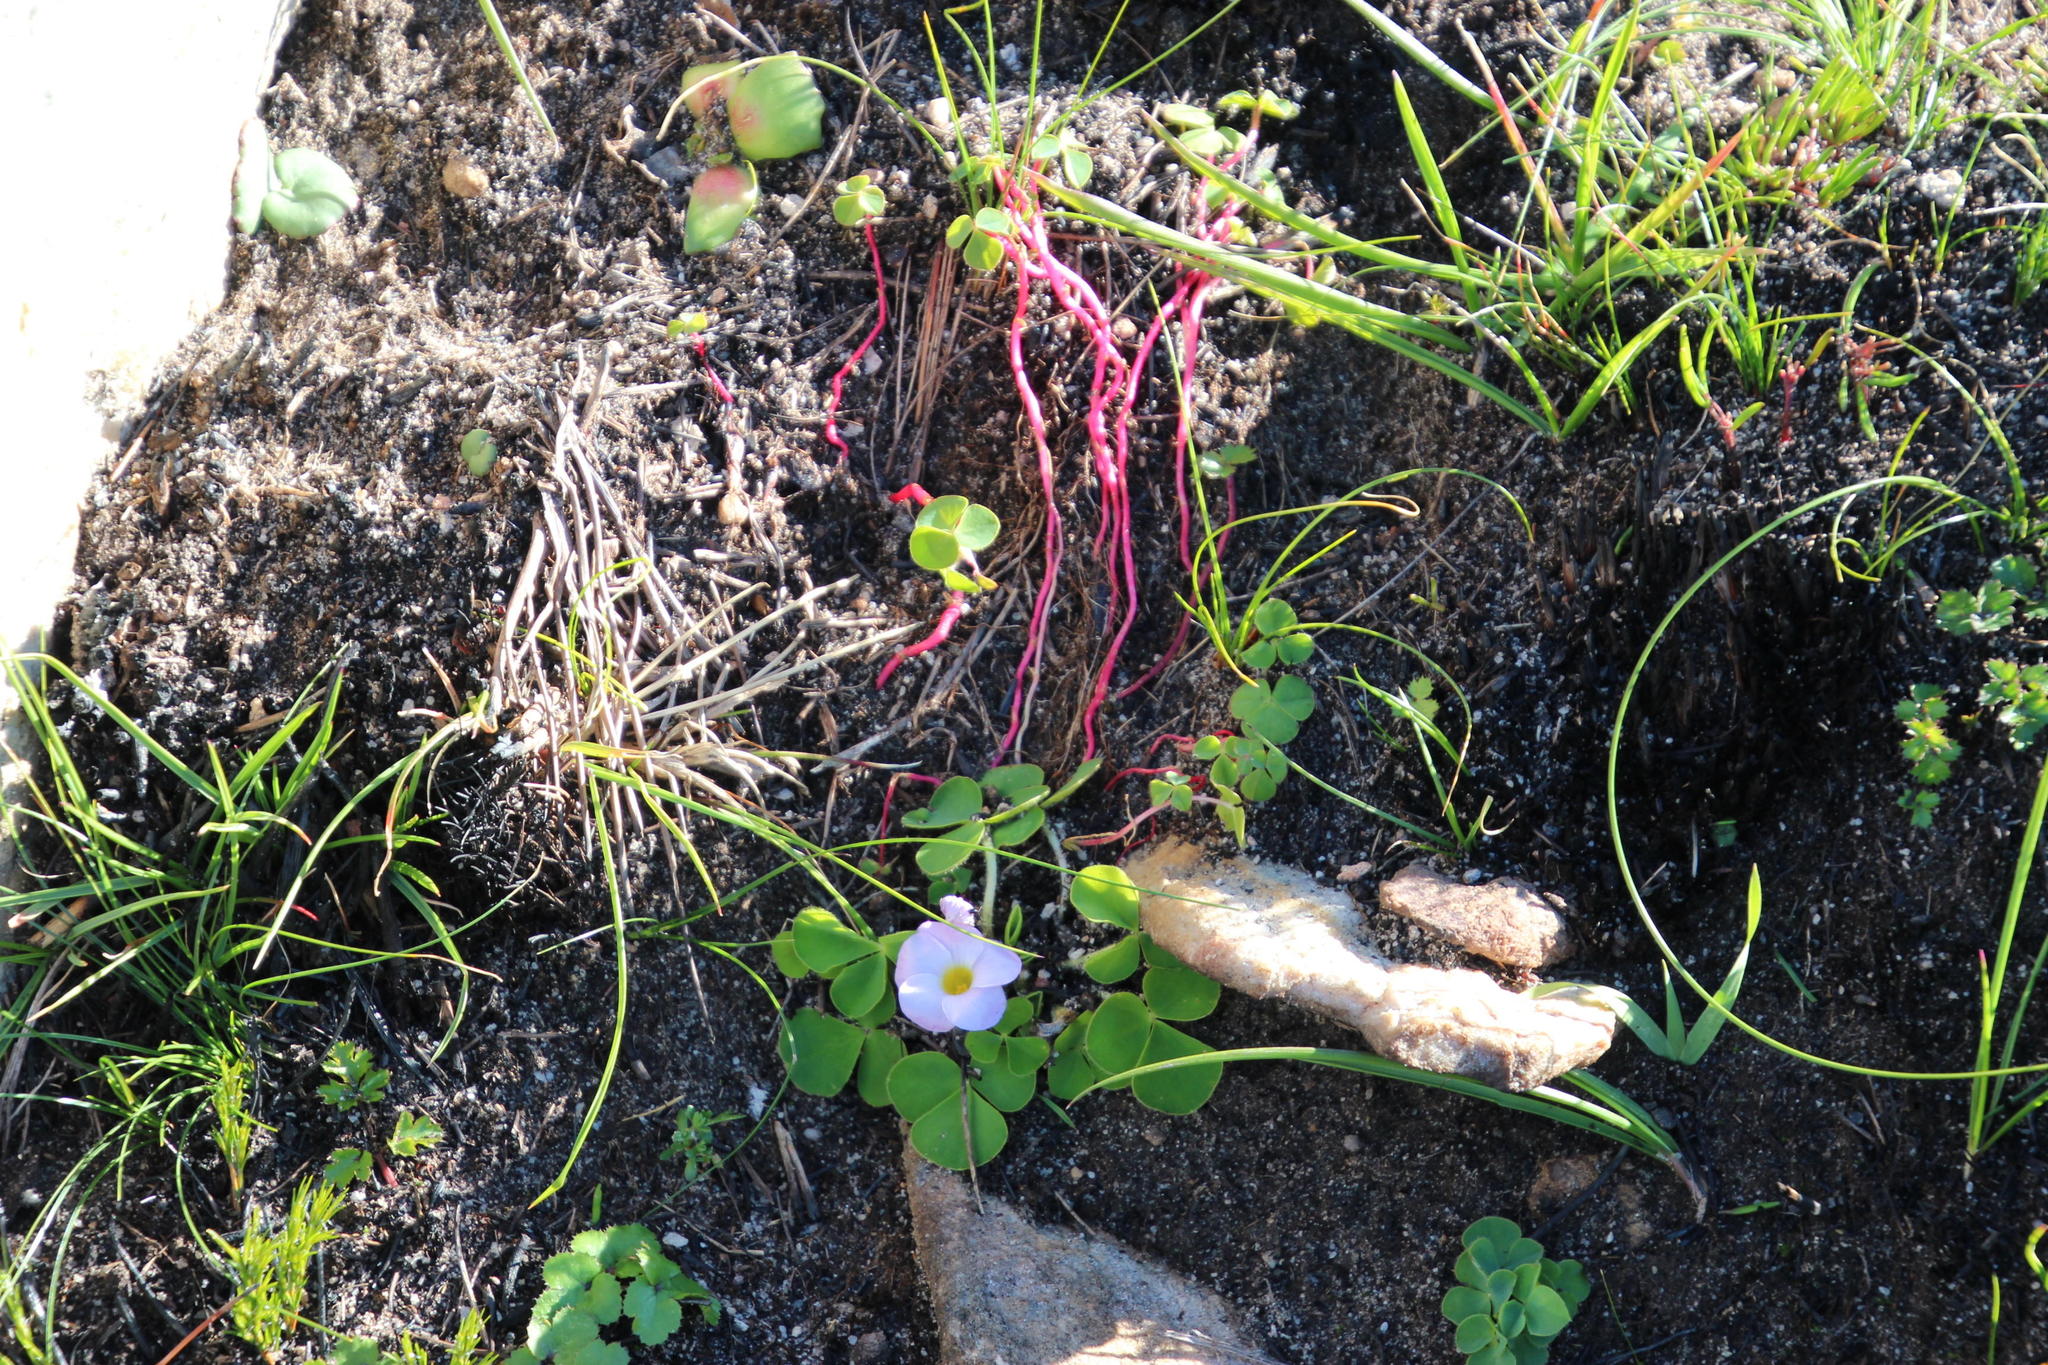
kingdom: Plantae
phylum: Tracheophyta
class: Magnoliopsida
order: Oxalidales
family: Oxalidaceae
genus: Oxalis
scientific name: Oxalis purpurea
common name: Purple woodsorrel
